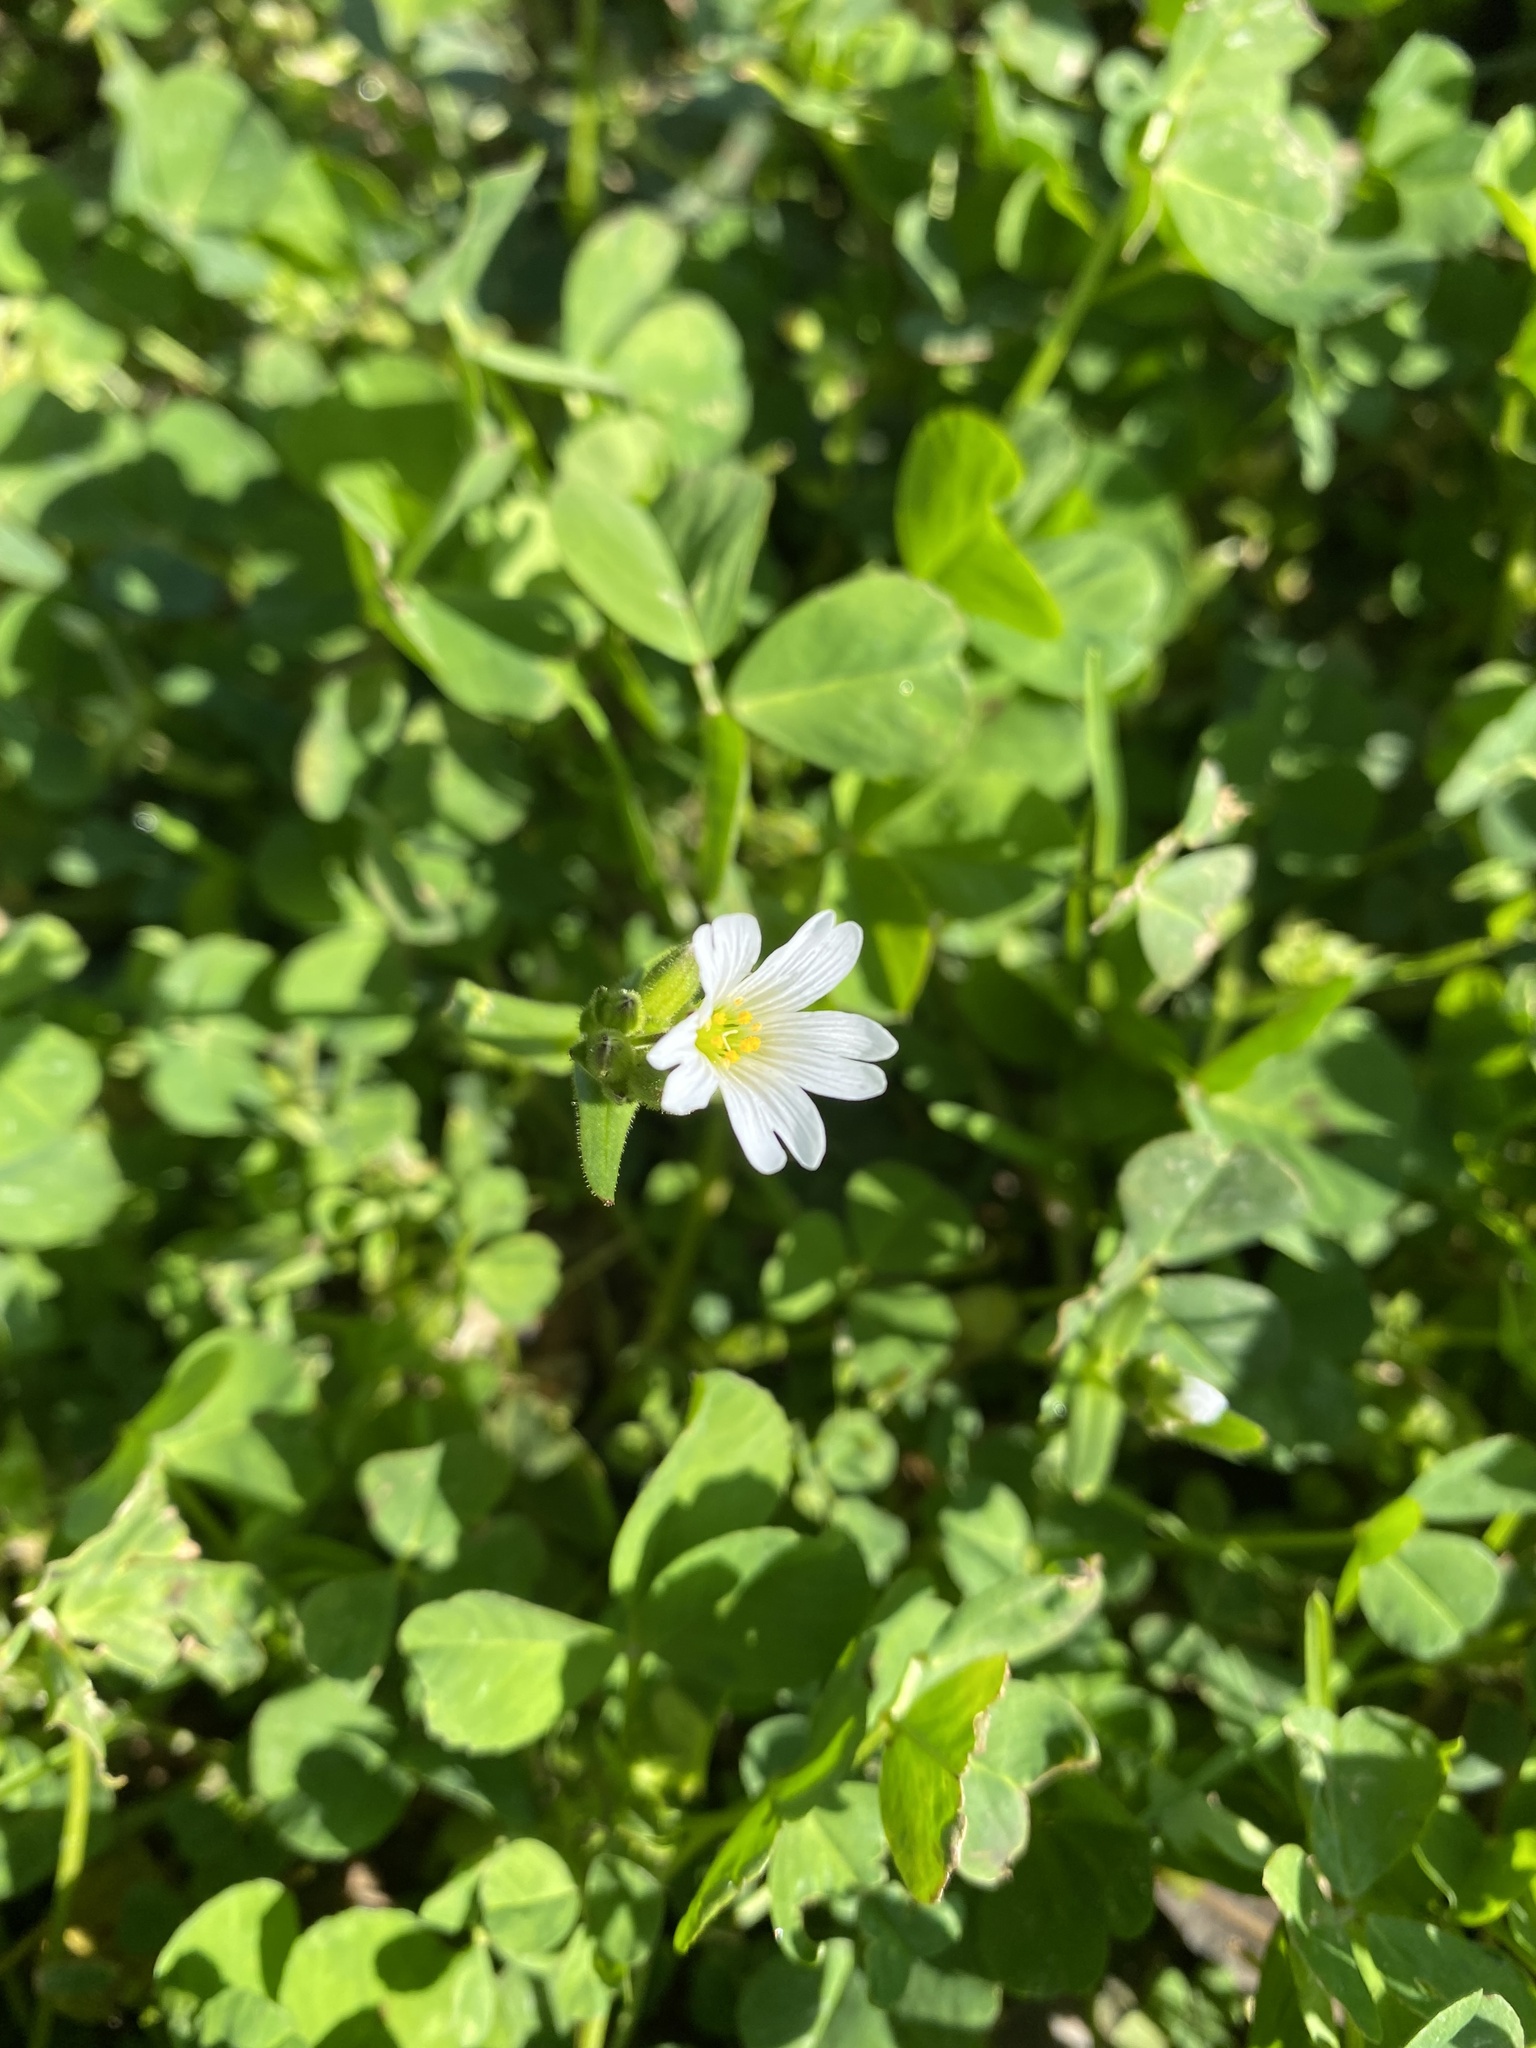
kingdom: Plantae
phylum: Tracheophyta
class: Magnoliopsida
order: Caryophyllales
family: Caryophyllaceae
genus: Dichodon
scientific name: Dichodon viscidum
